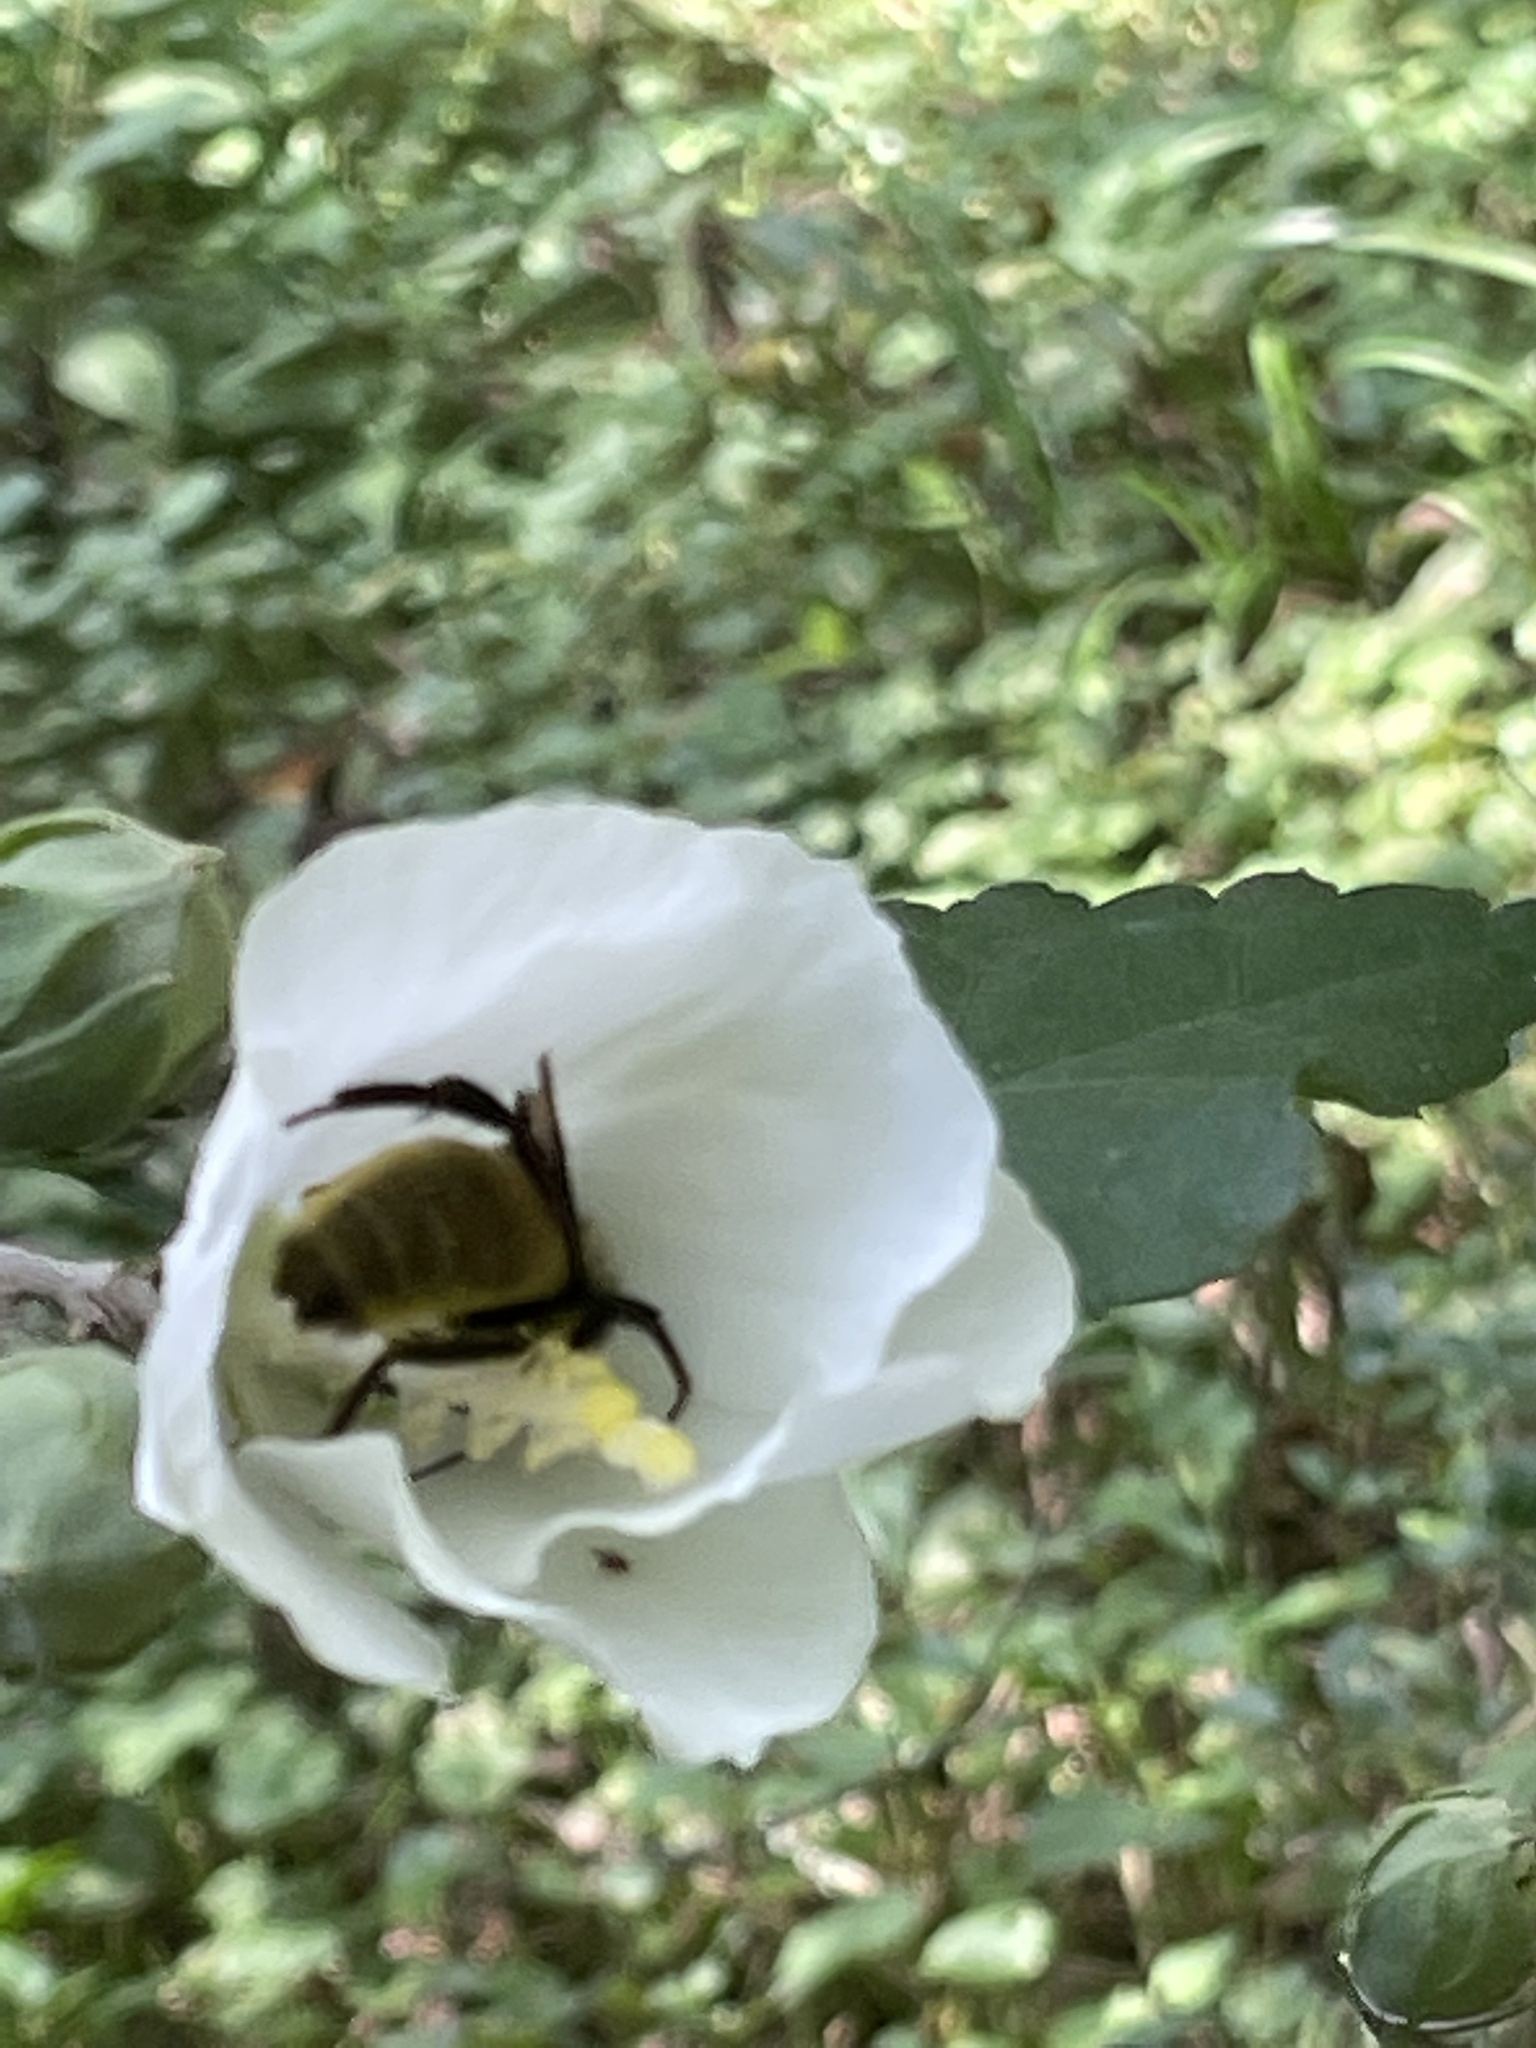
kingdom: Animalia
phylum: Arthropoda
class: Insecta
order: Hymenoptera
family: Apidae
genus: Bombus
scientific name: Bombus pensylvanicus
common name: Bumble bee
